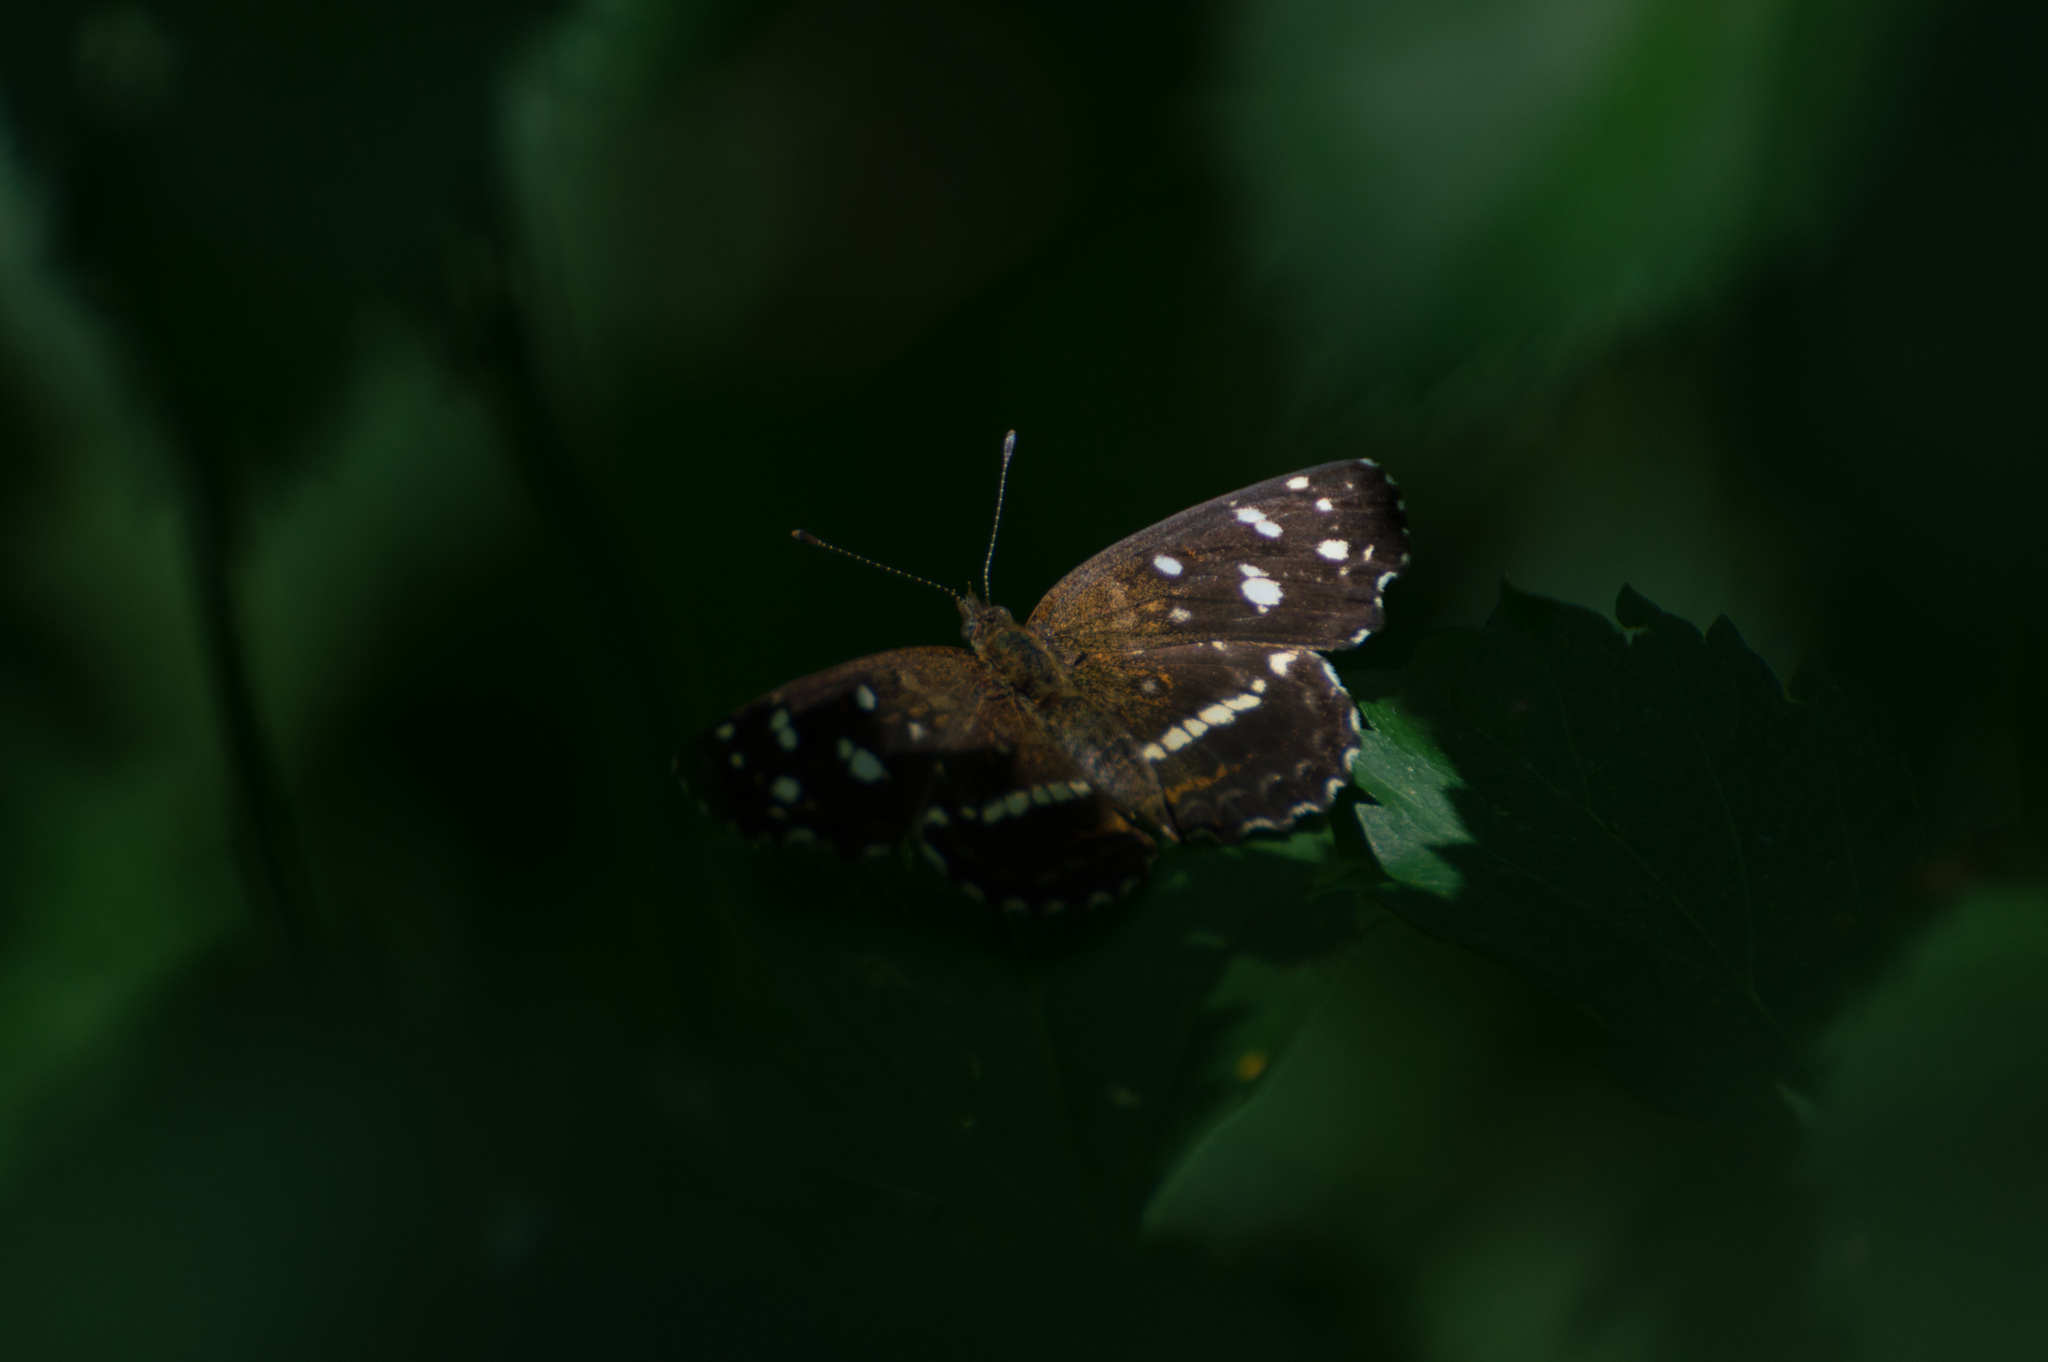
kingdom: Animalia
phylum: Arthropoda
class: Insecta
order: Lepidoptera
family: Nymphalidae
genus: Ortilia
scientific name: Ortilia ithra
